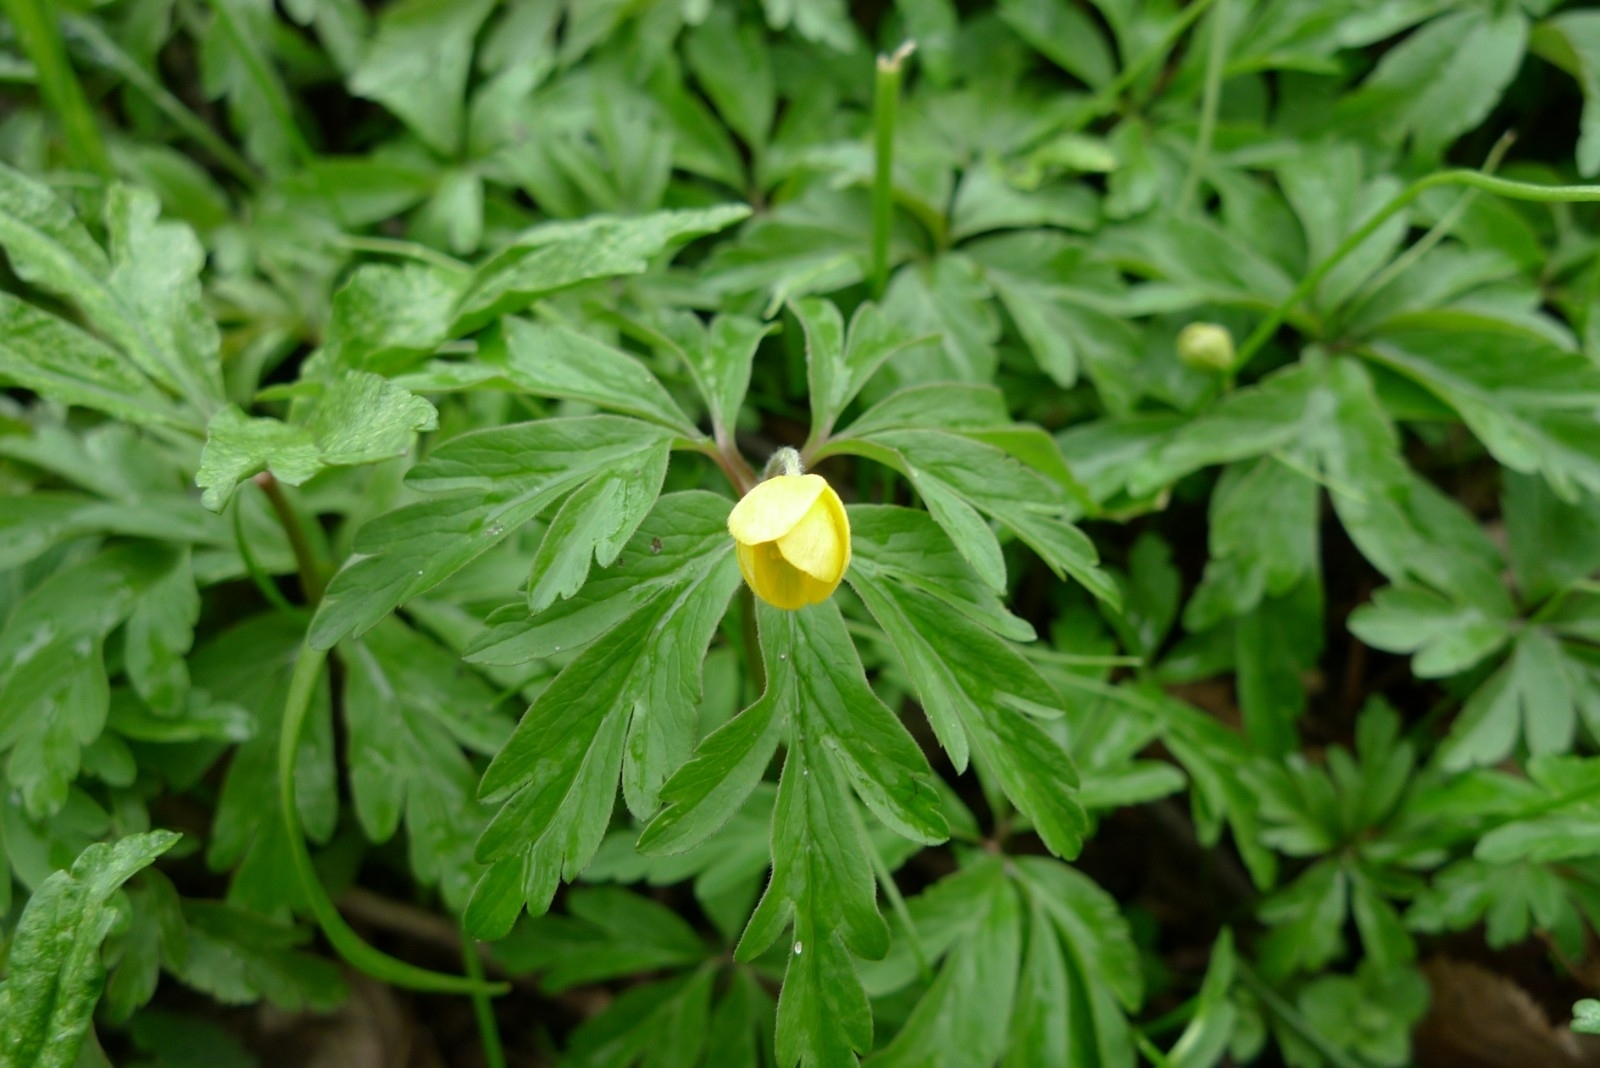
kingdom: Plantae
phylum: Tracheophyta
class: Magnoliopsida
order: Ranunculales
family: Ranunculaceae
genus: Anemone
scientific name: Anemone ranunculoides
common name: Yellow anemone
